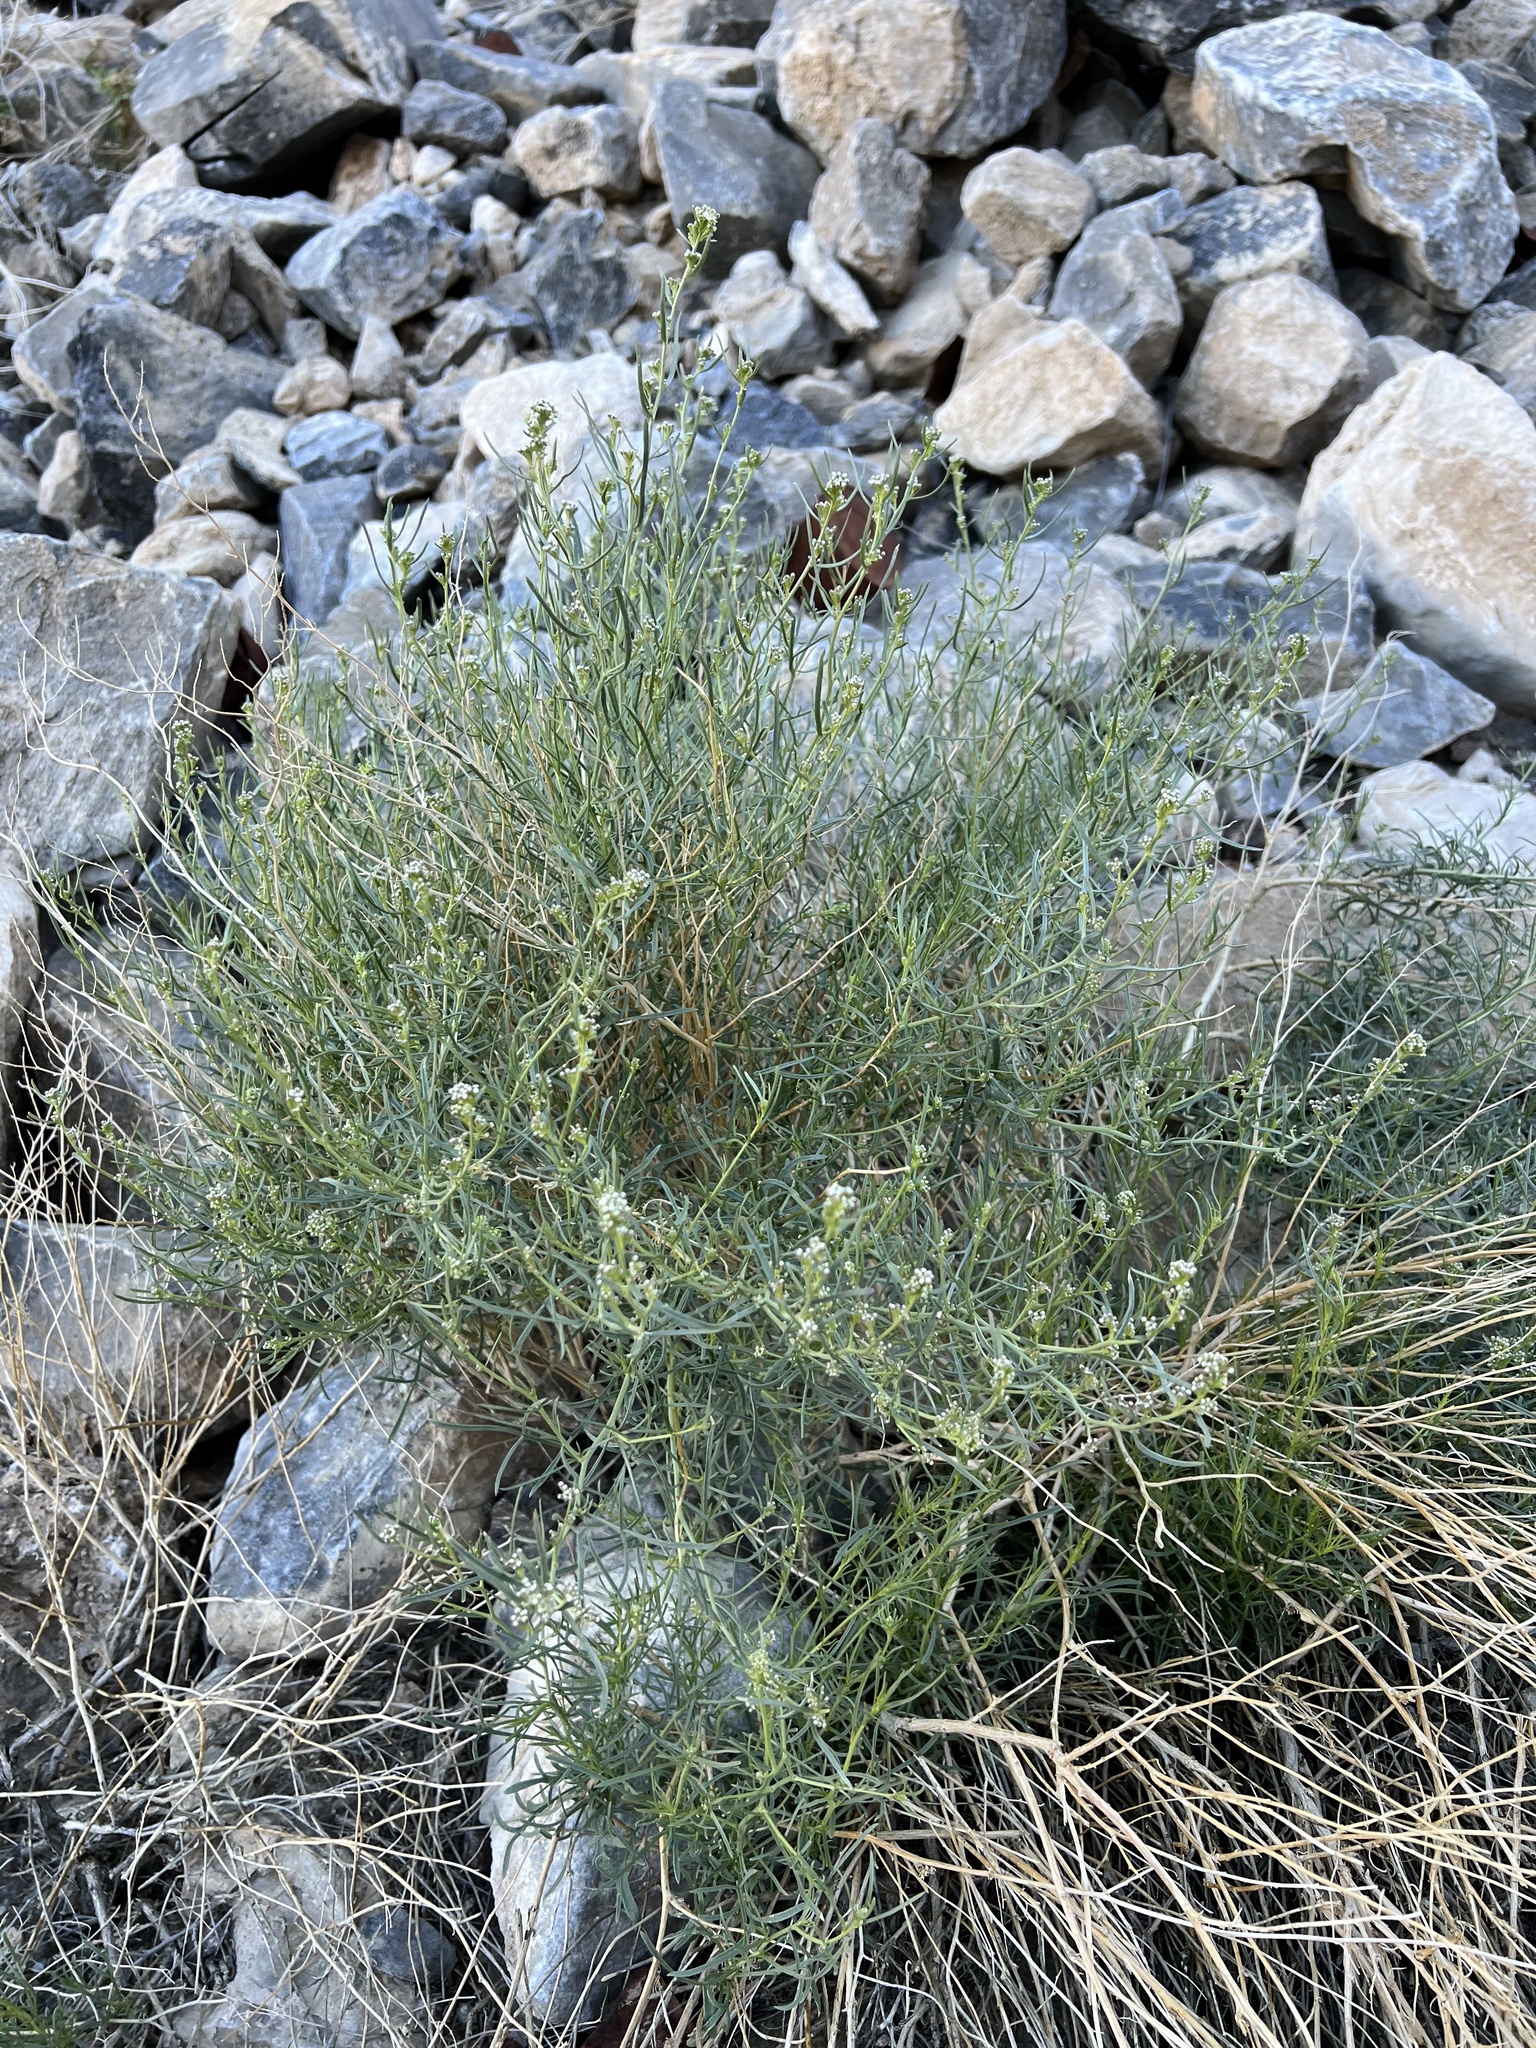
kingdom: Plantae
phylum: Tracheophyta
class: Magnoliopsida
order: Brassicales
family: Brassicaceae
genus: Lepidium
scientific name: Lepidium fremontii
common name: Fremont's pepperwort
